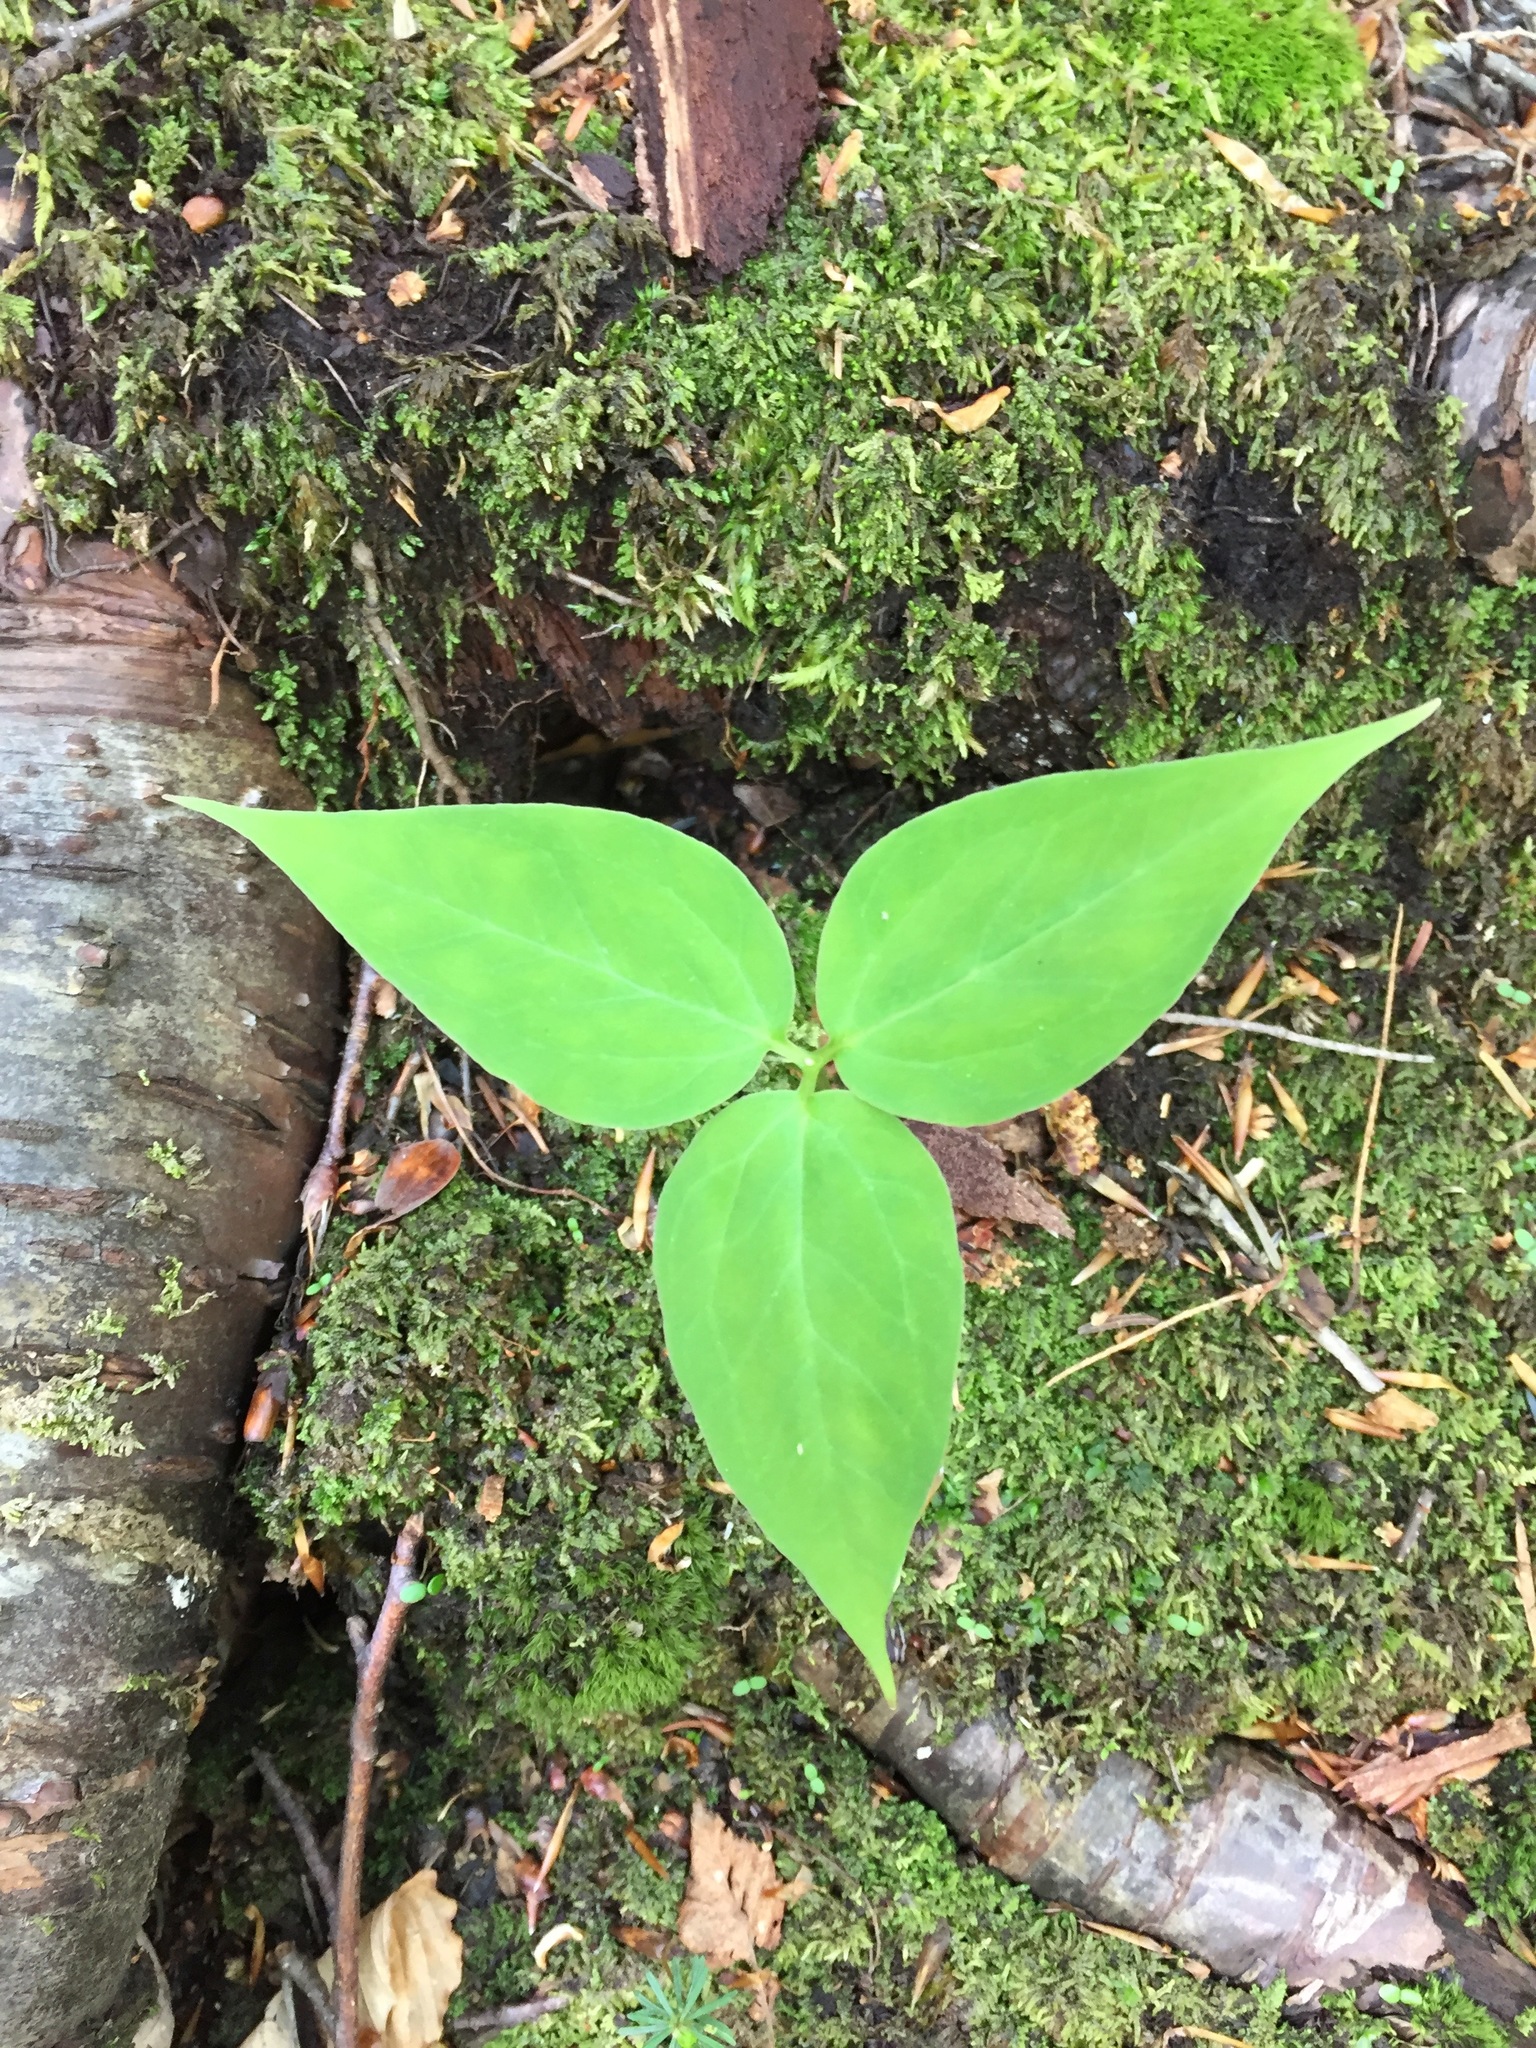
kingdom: Plantae
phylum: Tracheophyta
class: Liliopsida
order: Liliales
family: Melanthiaceae
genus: Trillium
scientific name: Trillium undulatum
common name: Paint trillium
